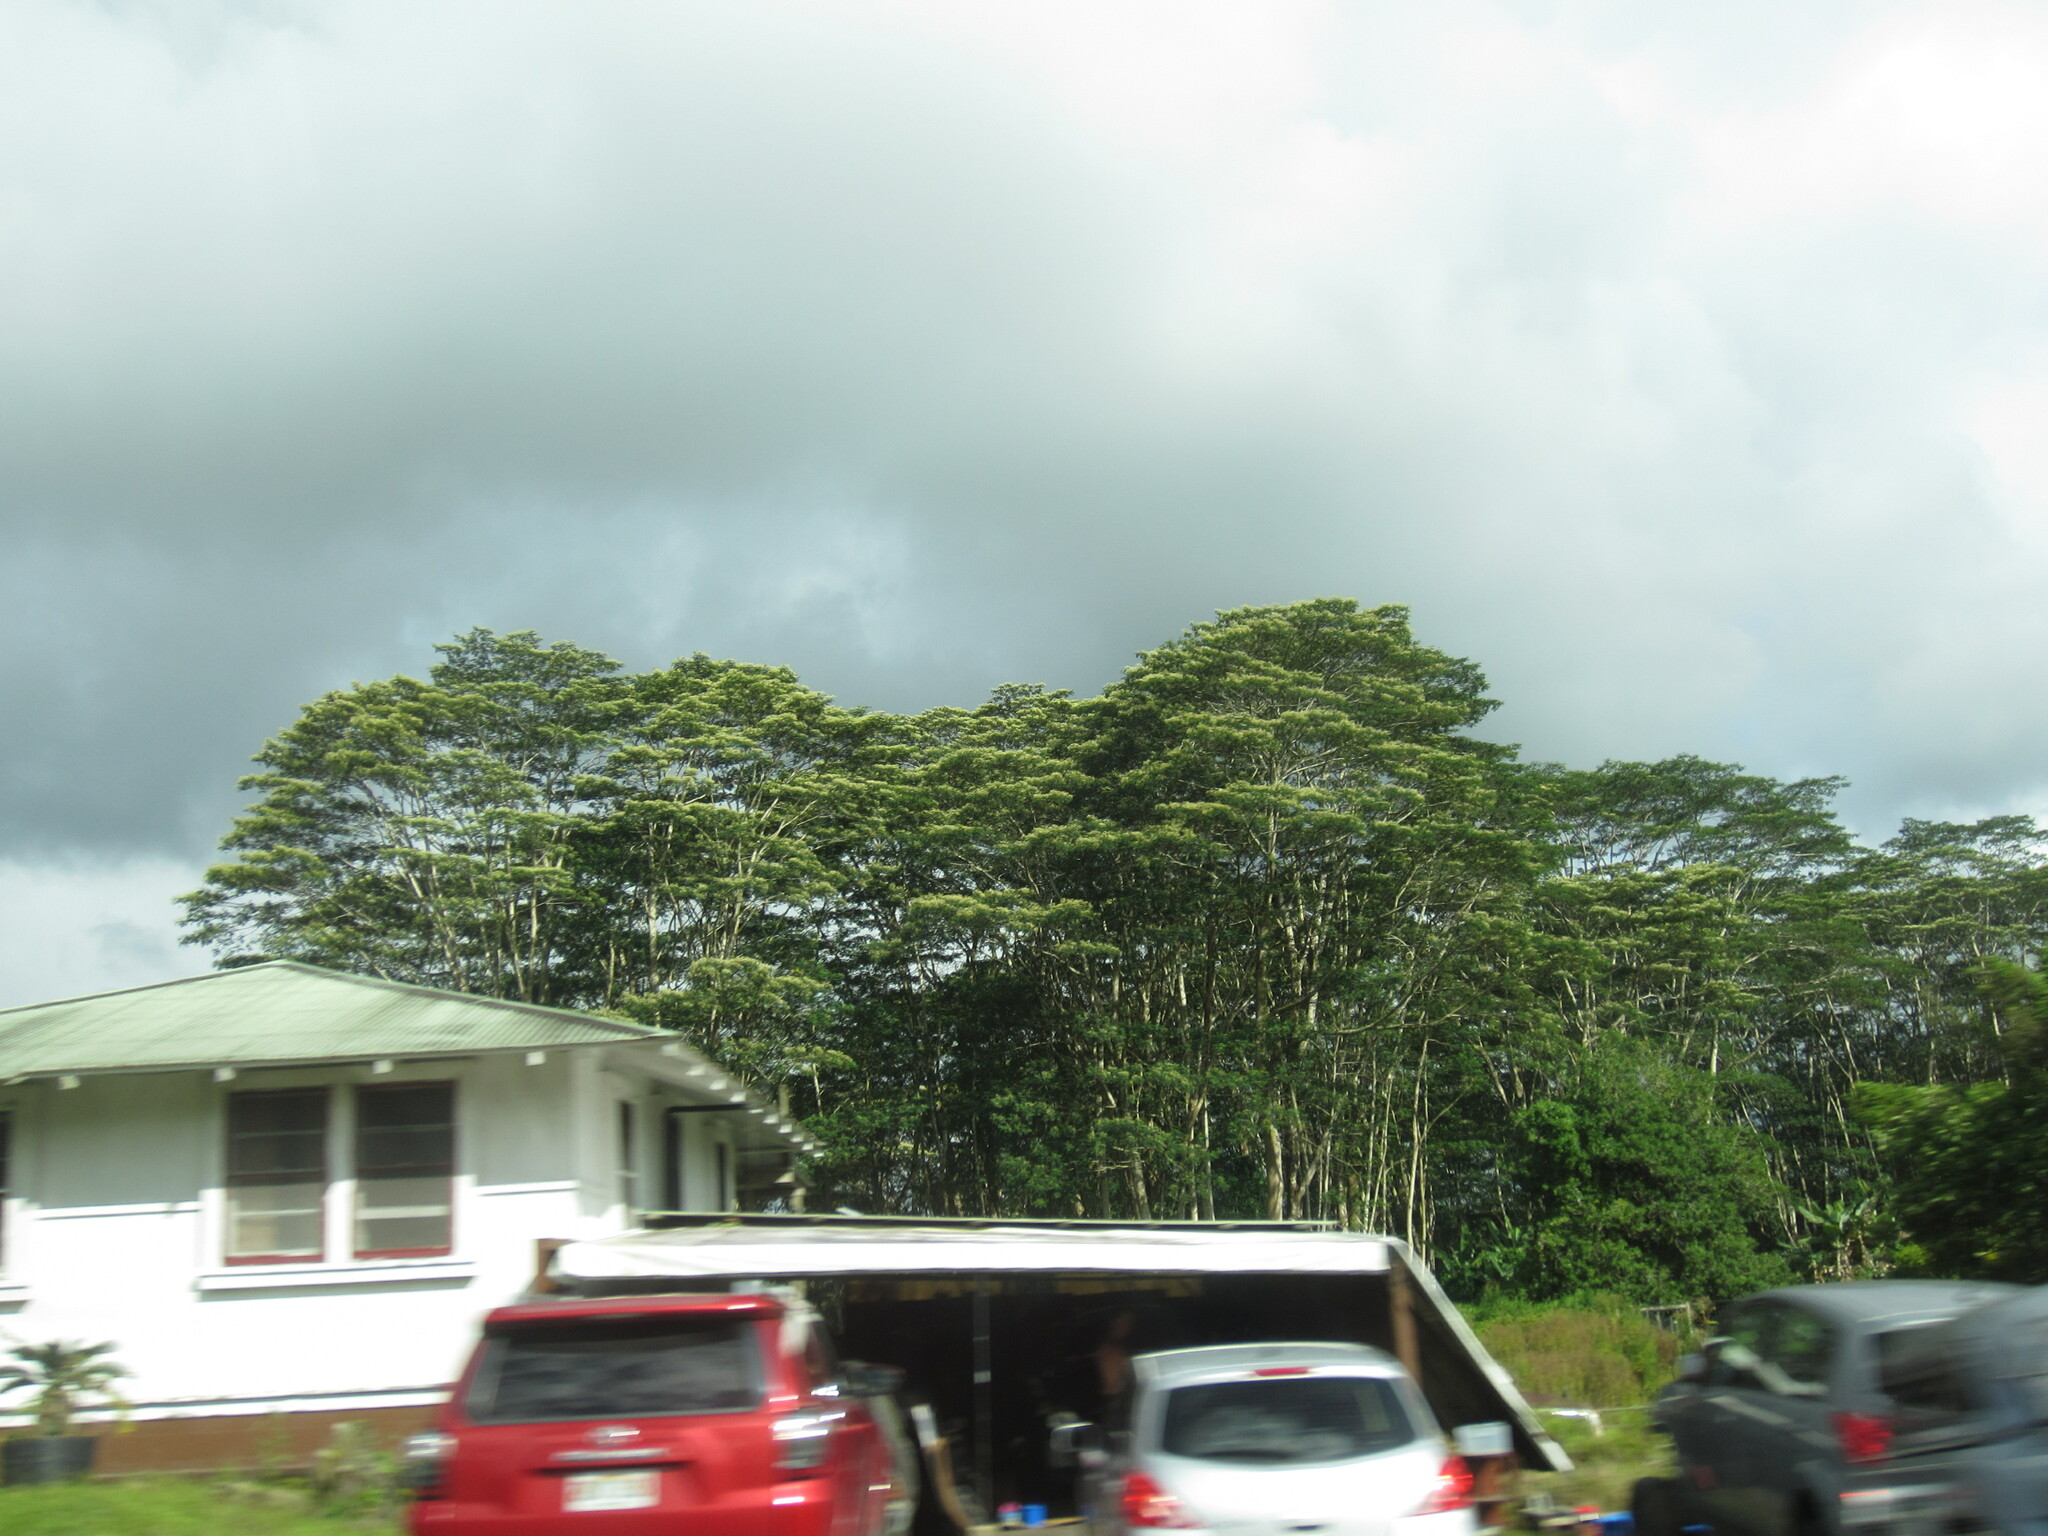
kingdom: Plantae
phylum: Tracheophyta
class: Magnoliopsida
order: Fabales
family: Fabaceae
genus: Falcataria
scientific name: Falcataria falcata
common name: Moluccan albizia
